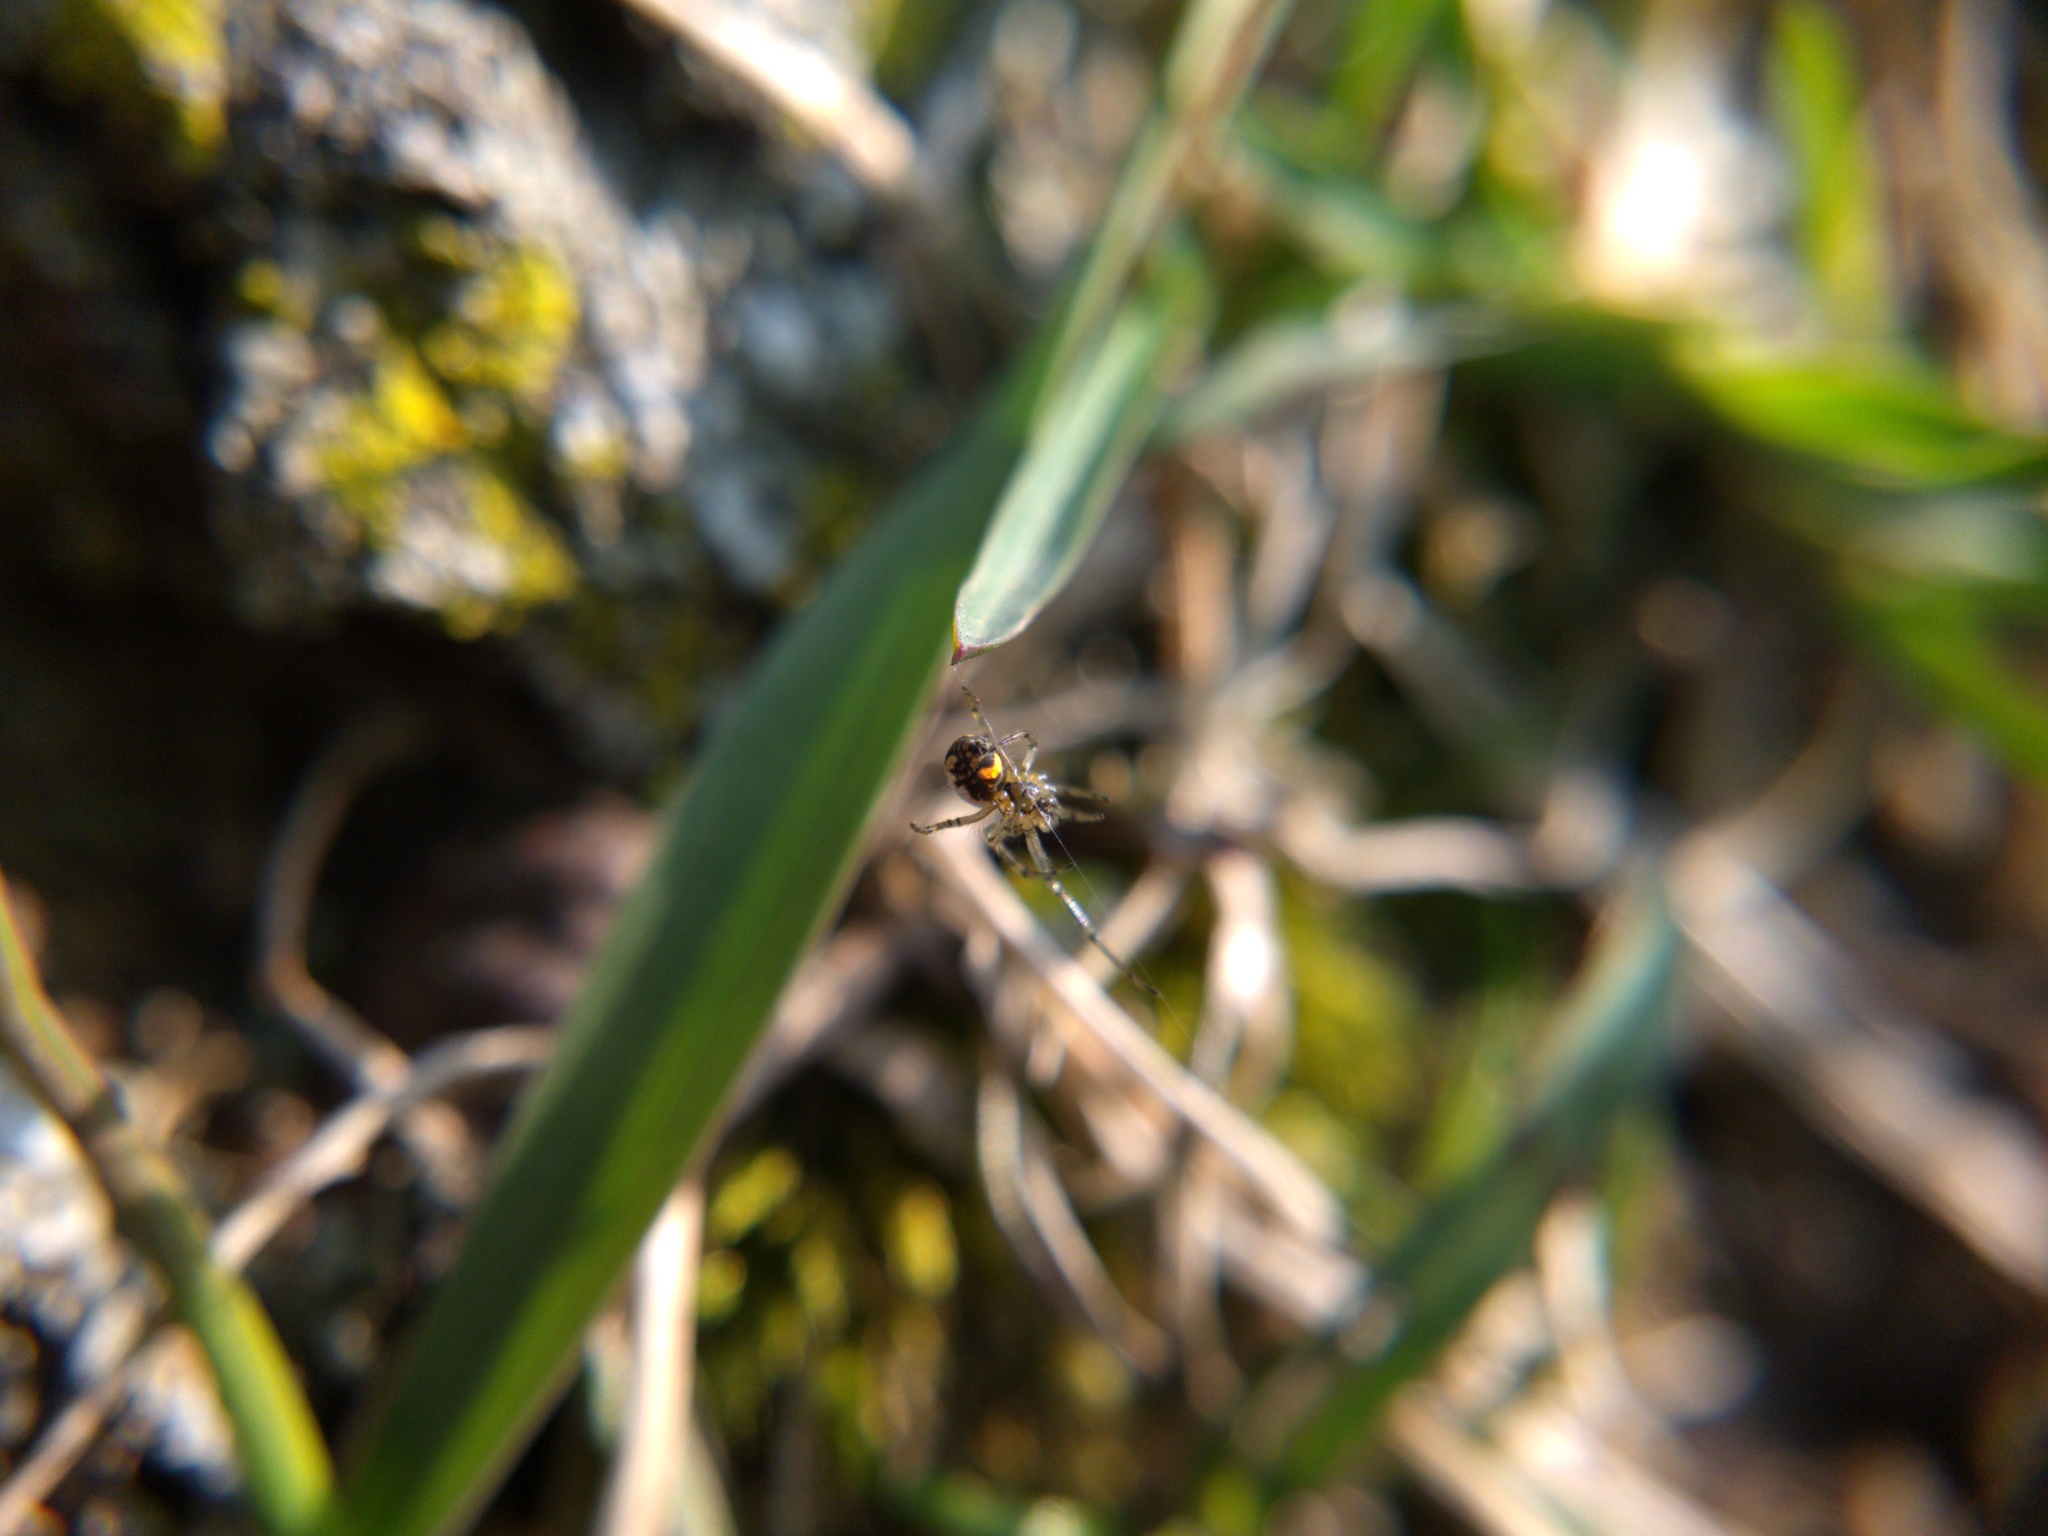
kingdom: Animalia
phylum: Arthropoda
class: Arachnida
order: Araneae
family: Tetragnathidae
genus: Leucauge
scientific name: Leucauge venusta
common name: Longjawed orb weavers
